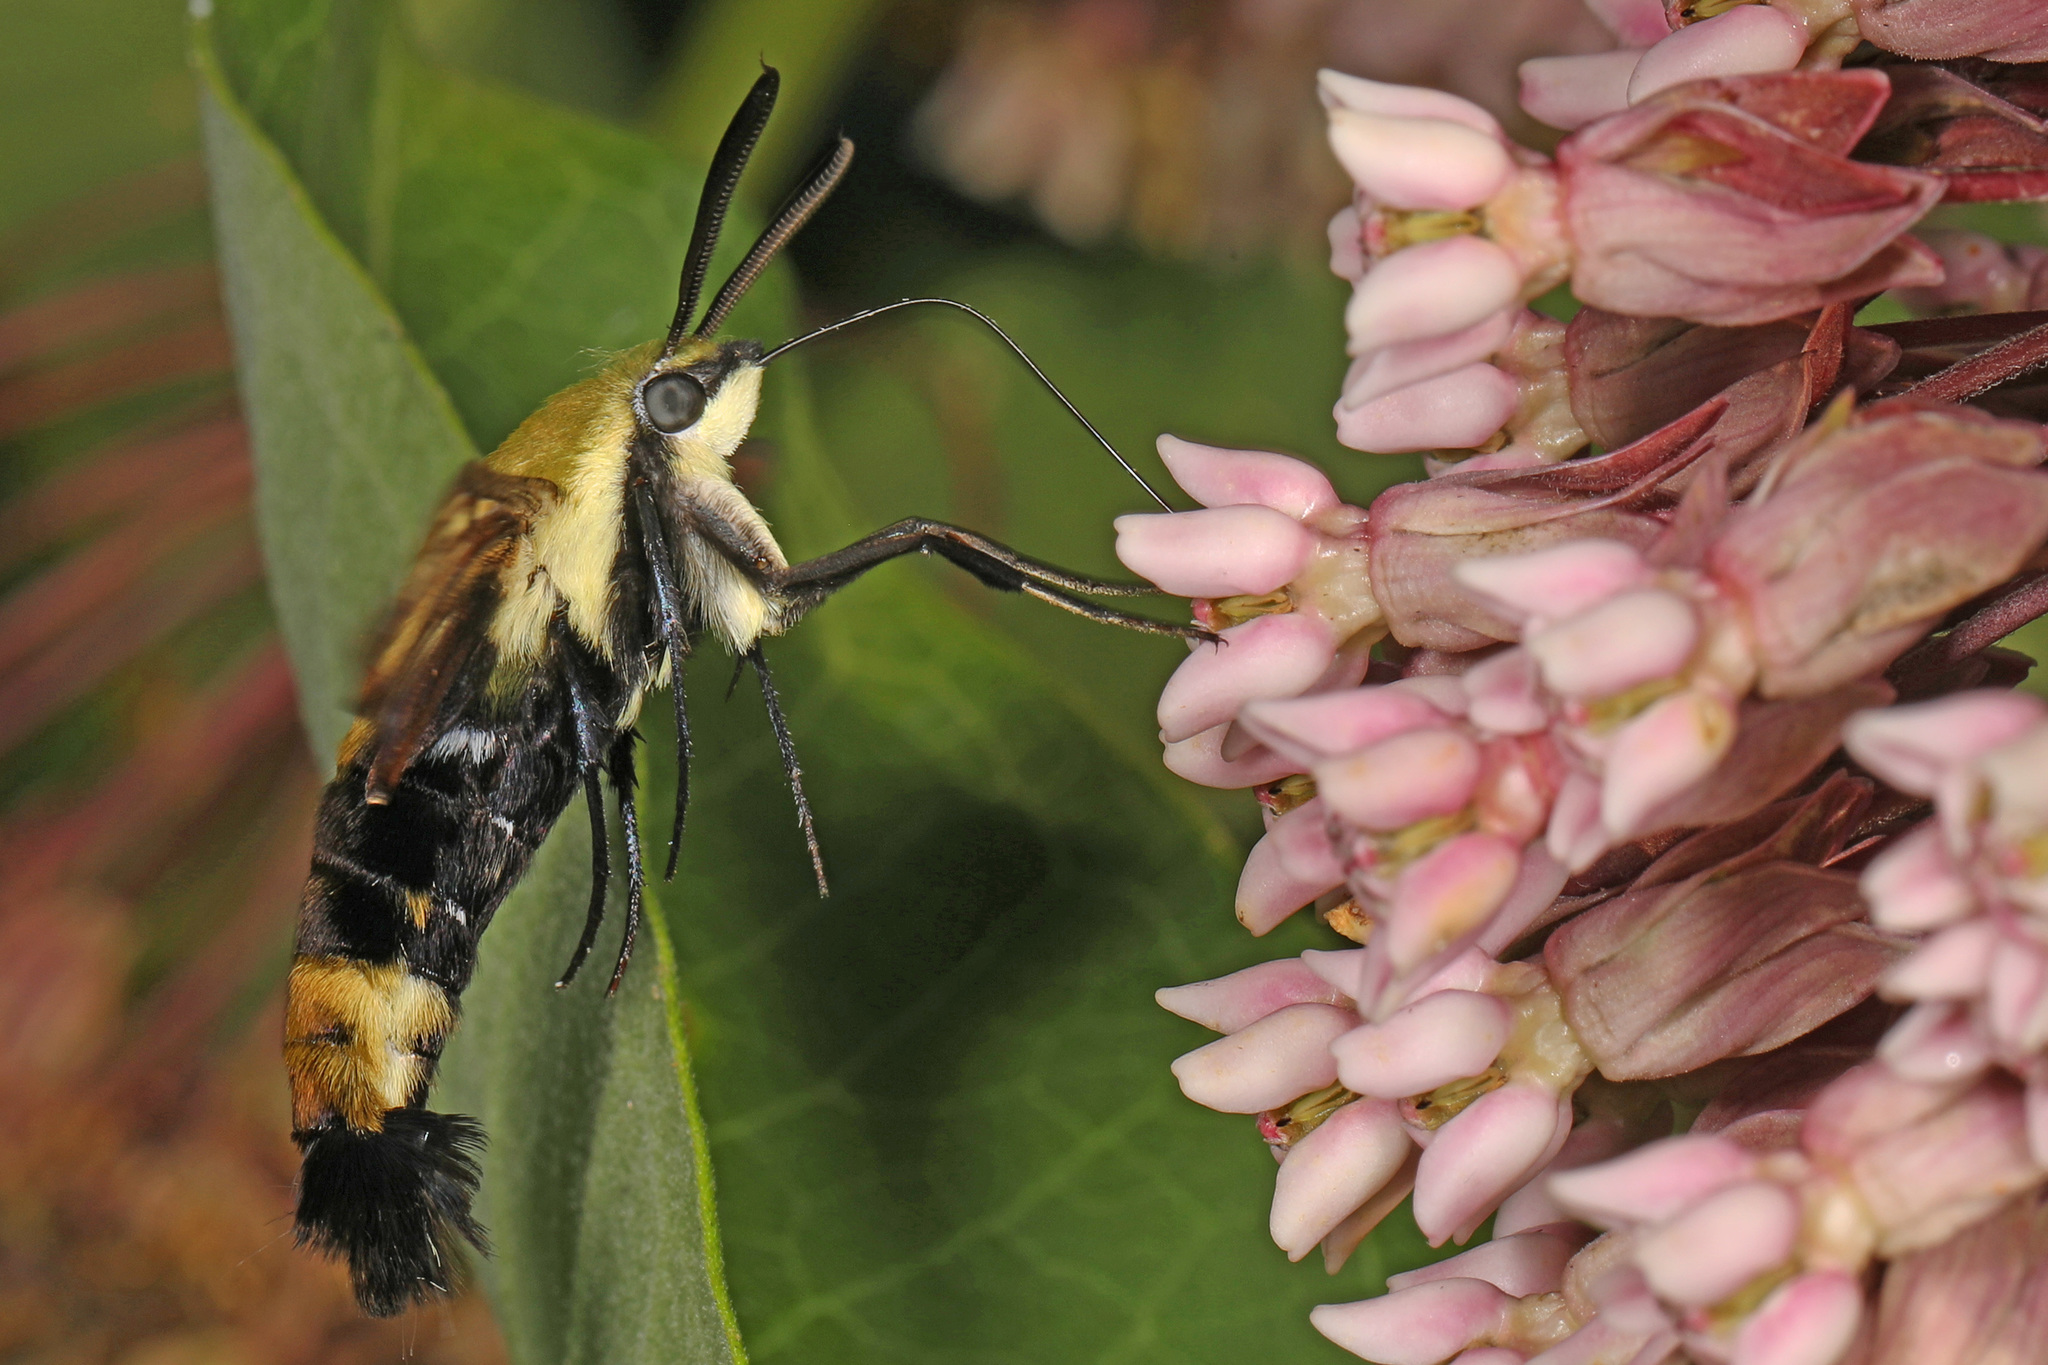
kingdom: Animalia
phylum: Arthropoda
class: Insecta
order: Lepidoptera
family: Sphingidae
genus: Hemaris
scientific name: Hemaris diffinis
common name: Bumblebee moth
